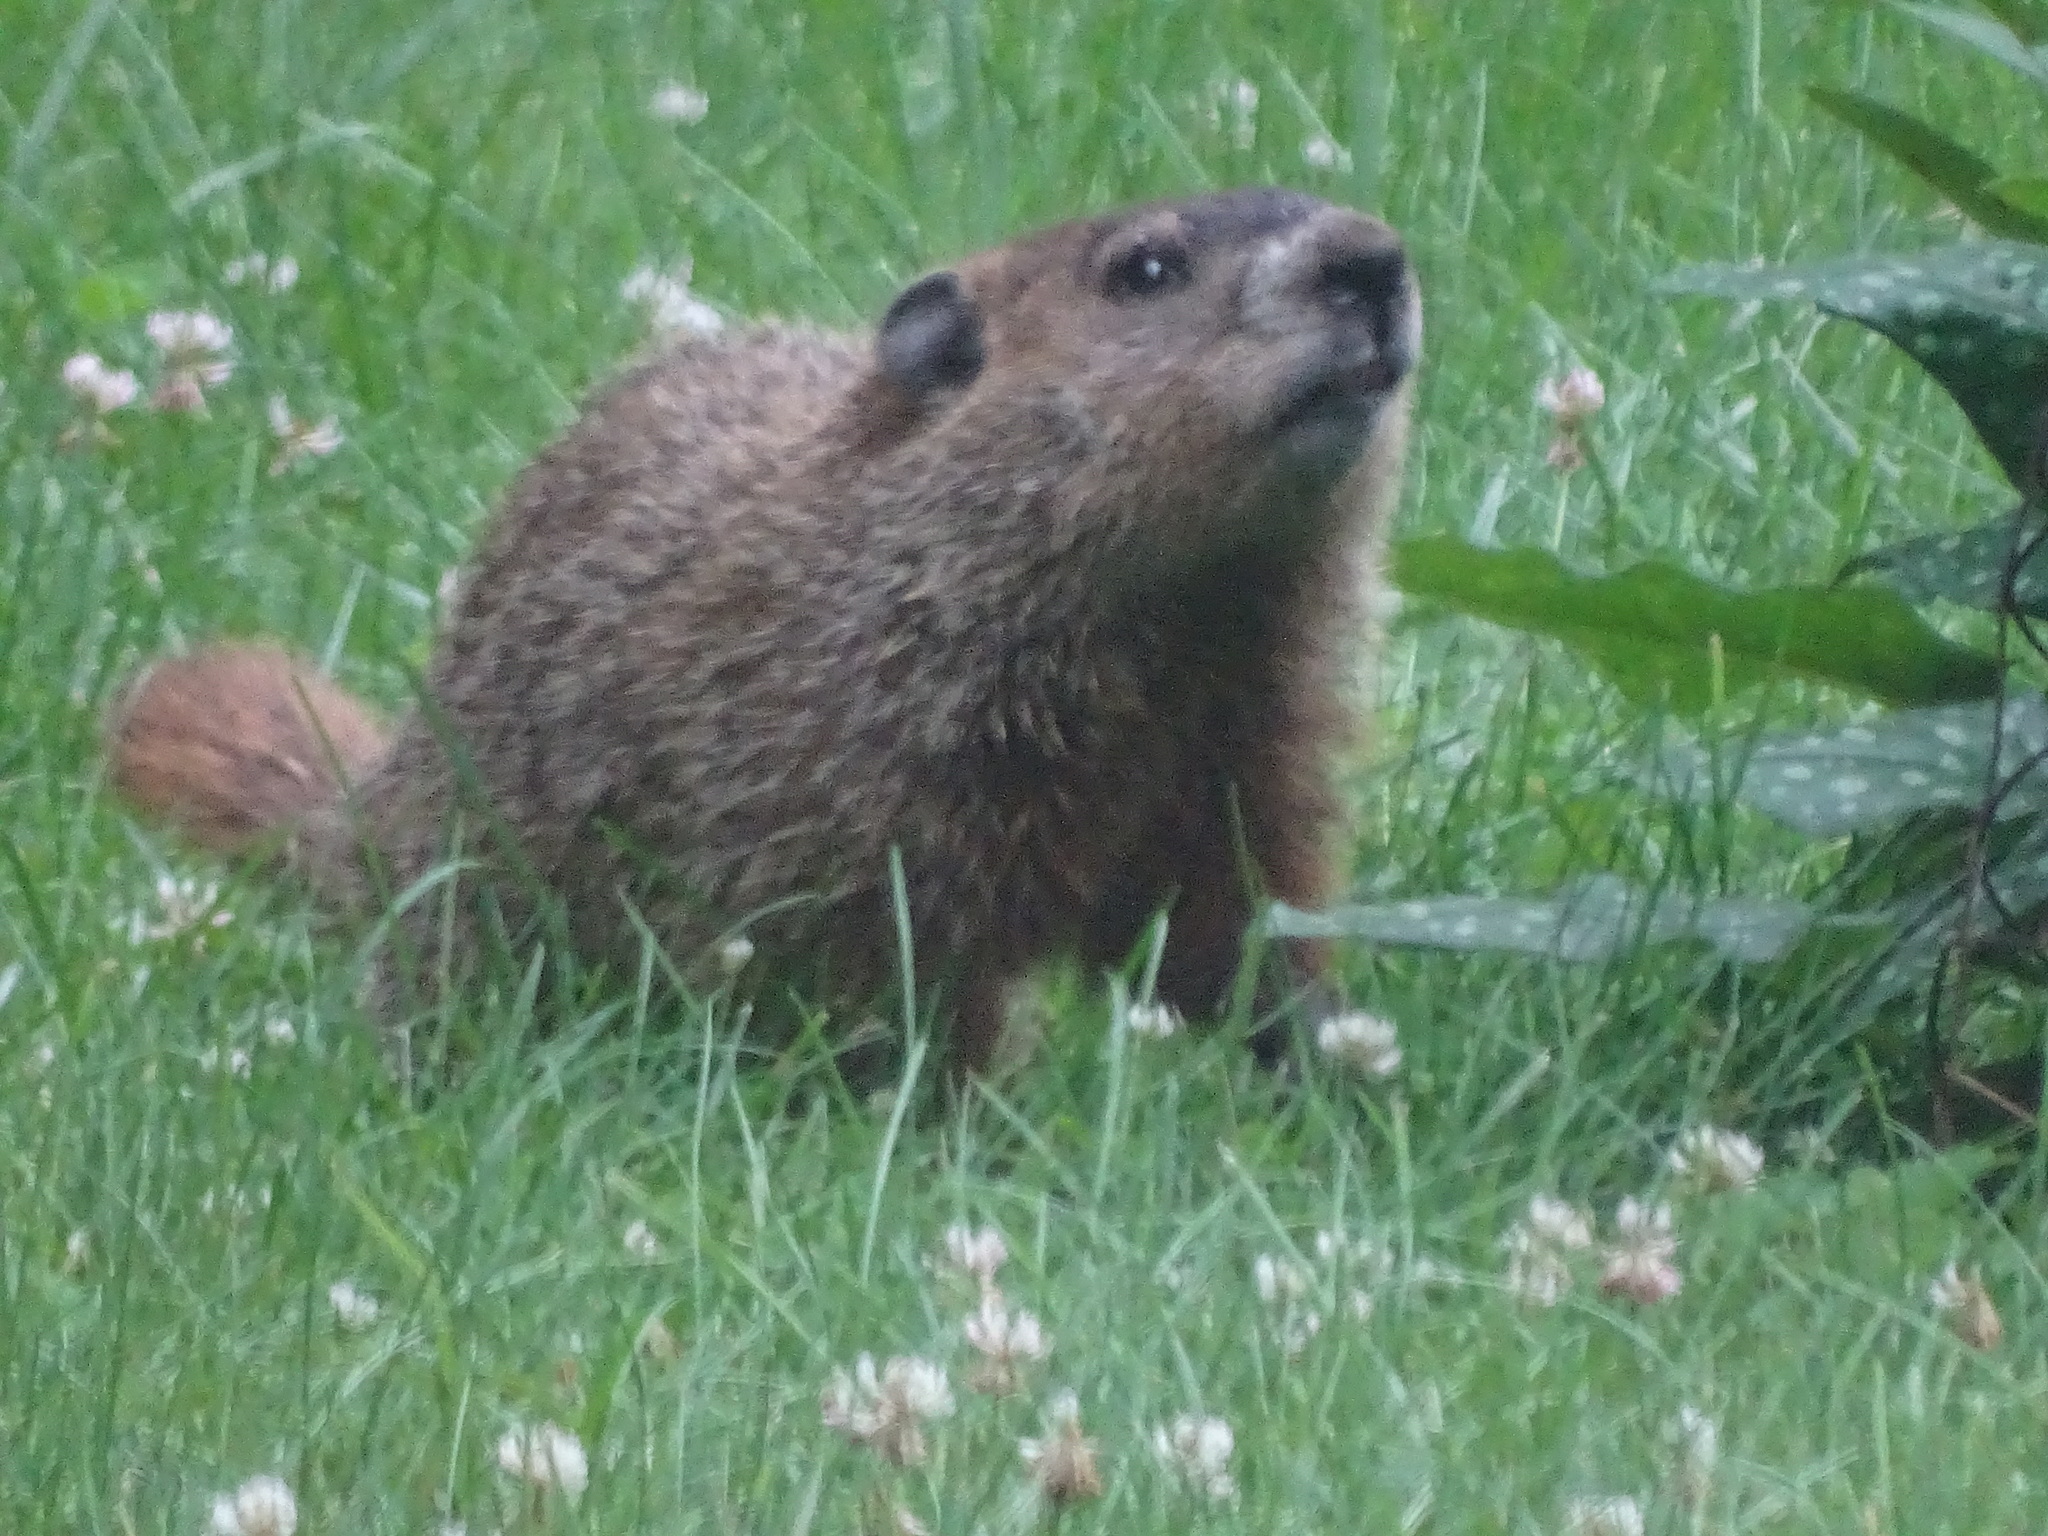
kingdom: Animalia
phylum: Chordata
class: Mammalia
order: Rodentia
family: Sciuridae
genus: Marmota
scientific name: Marmota monax
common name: Groundhog
